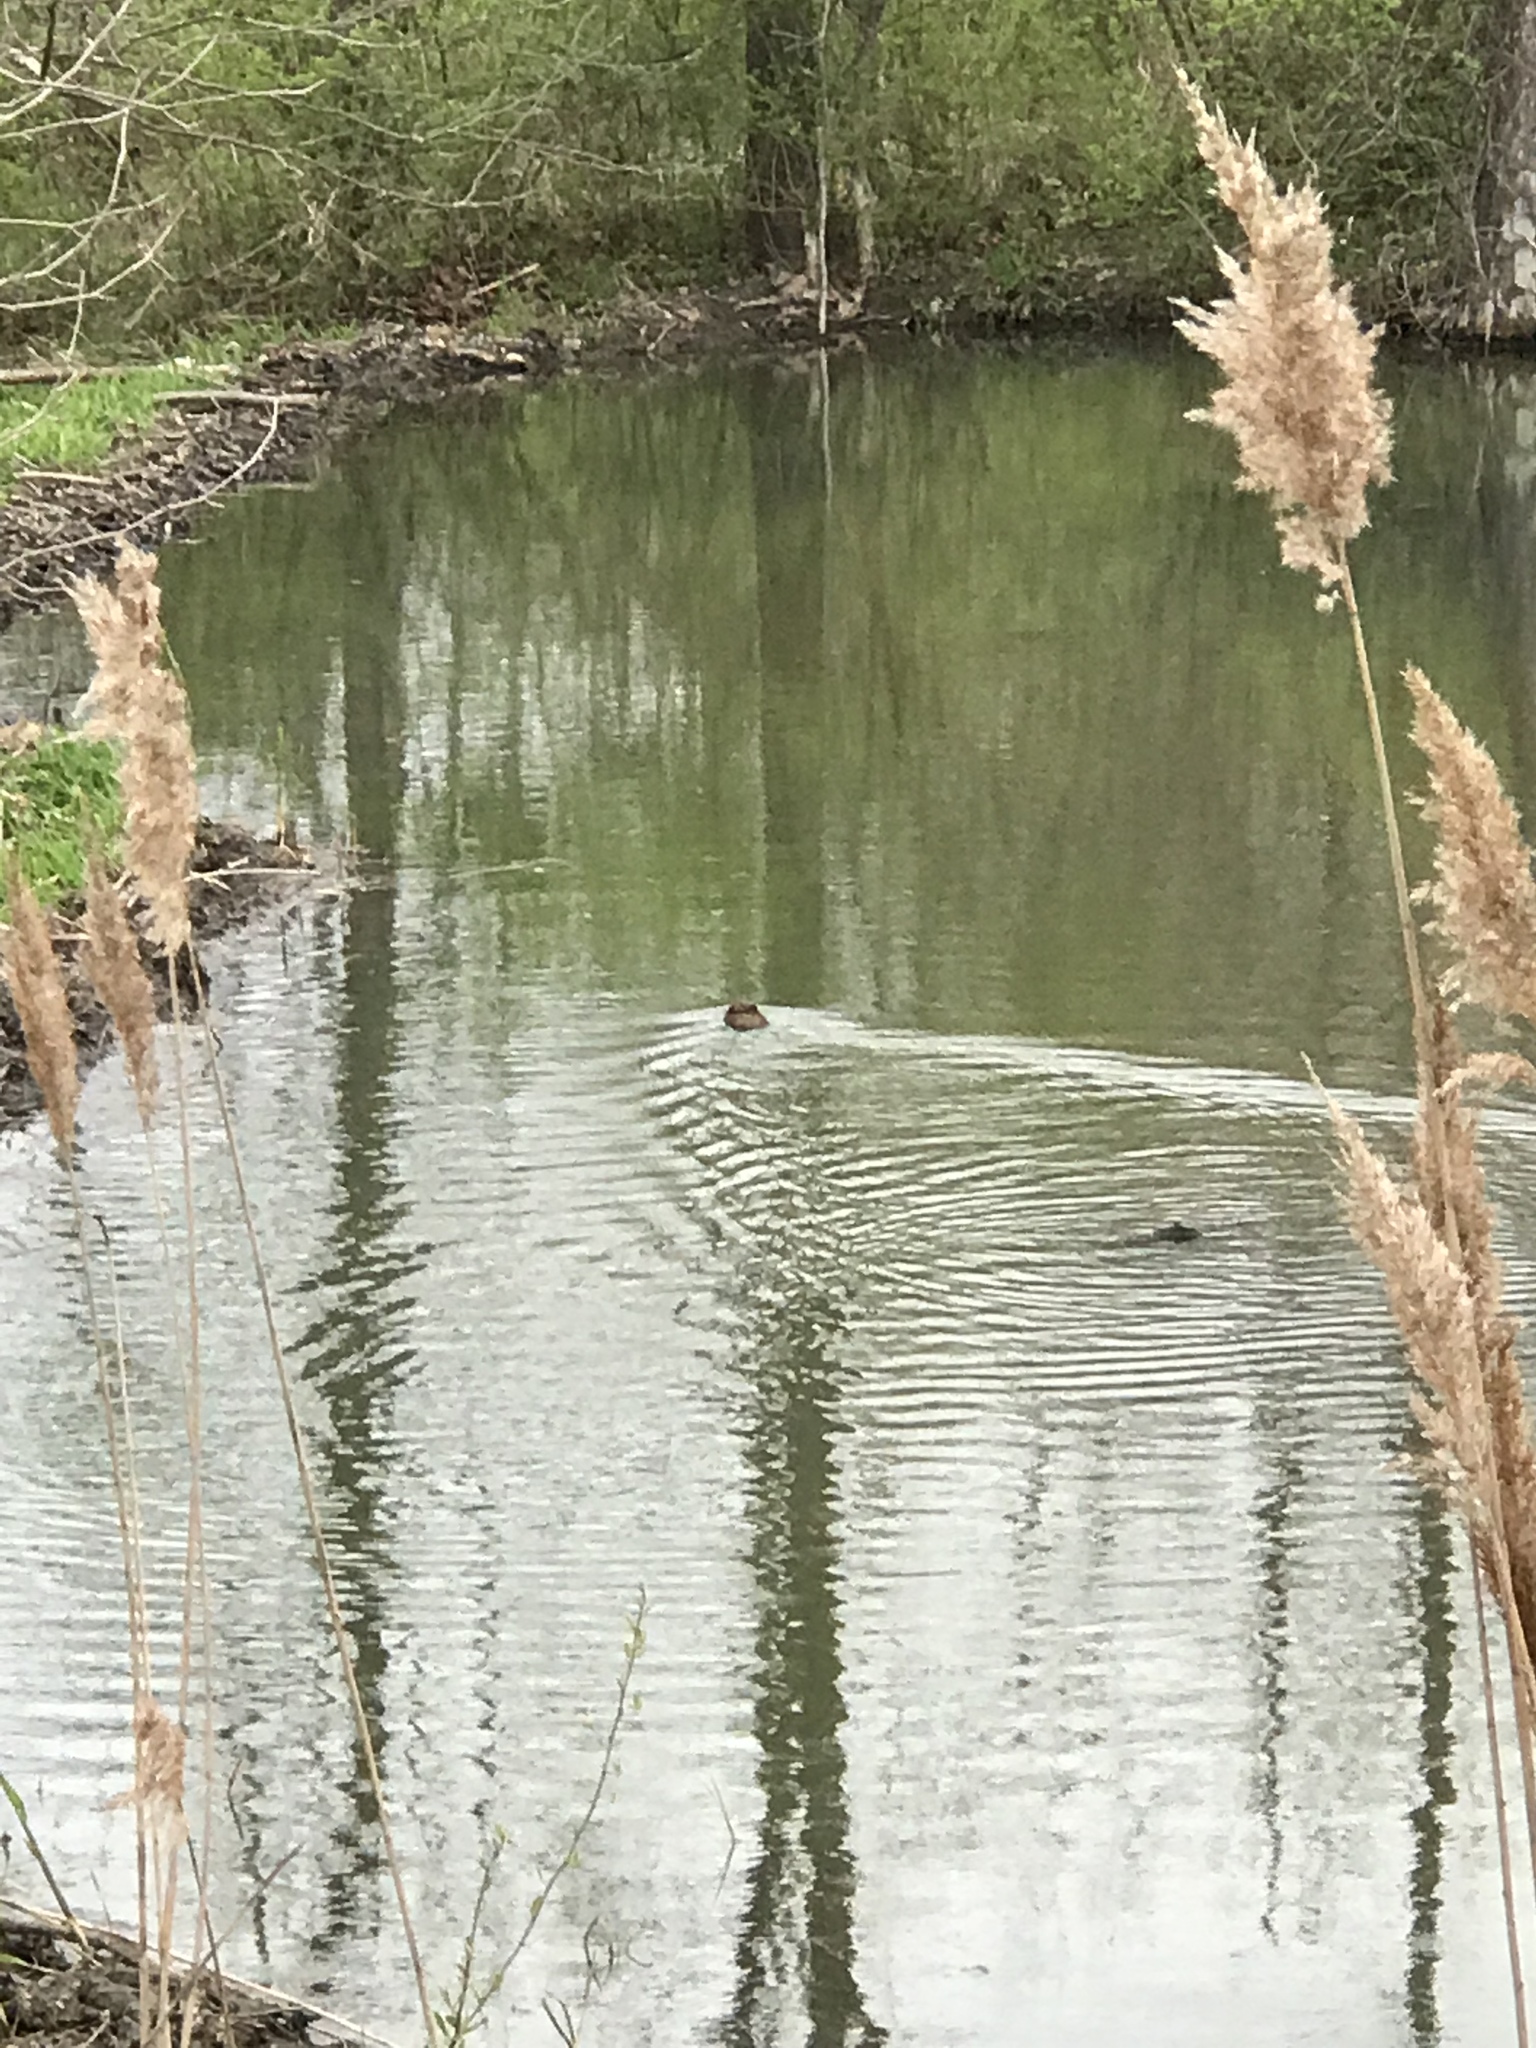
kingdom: Animalia
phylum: Chordata
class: Mammalia
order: Rodentia
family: Castoridae
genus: Castor
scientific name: Castor canadensis
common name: American beaver
